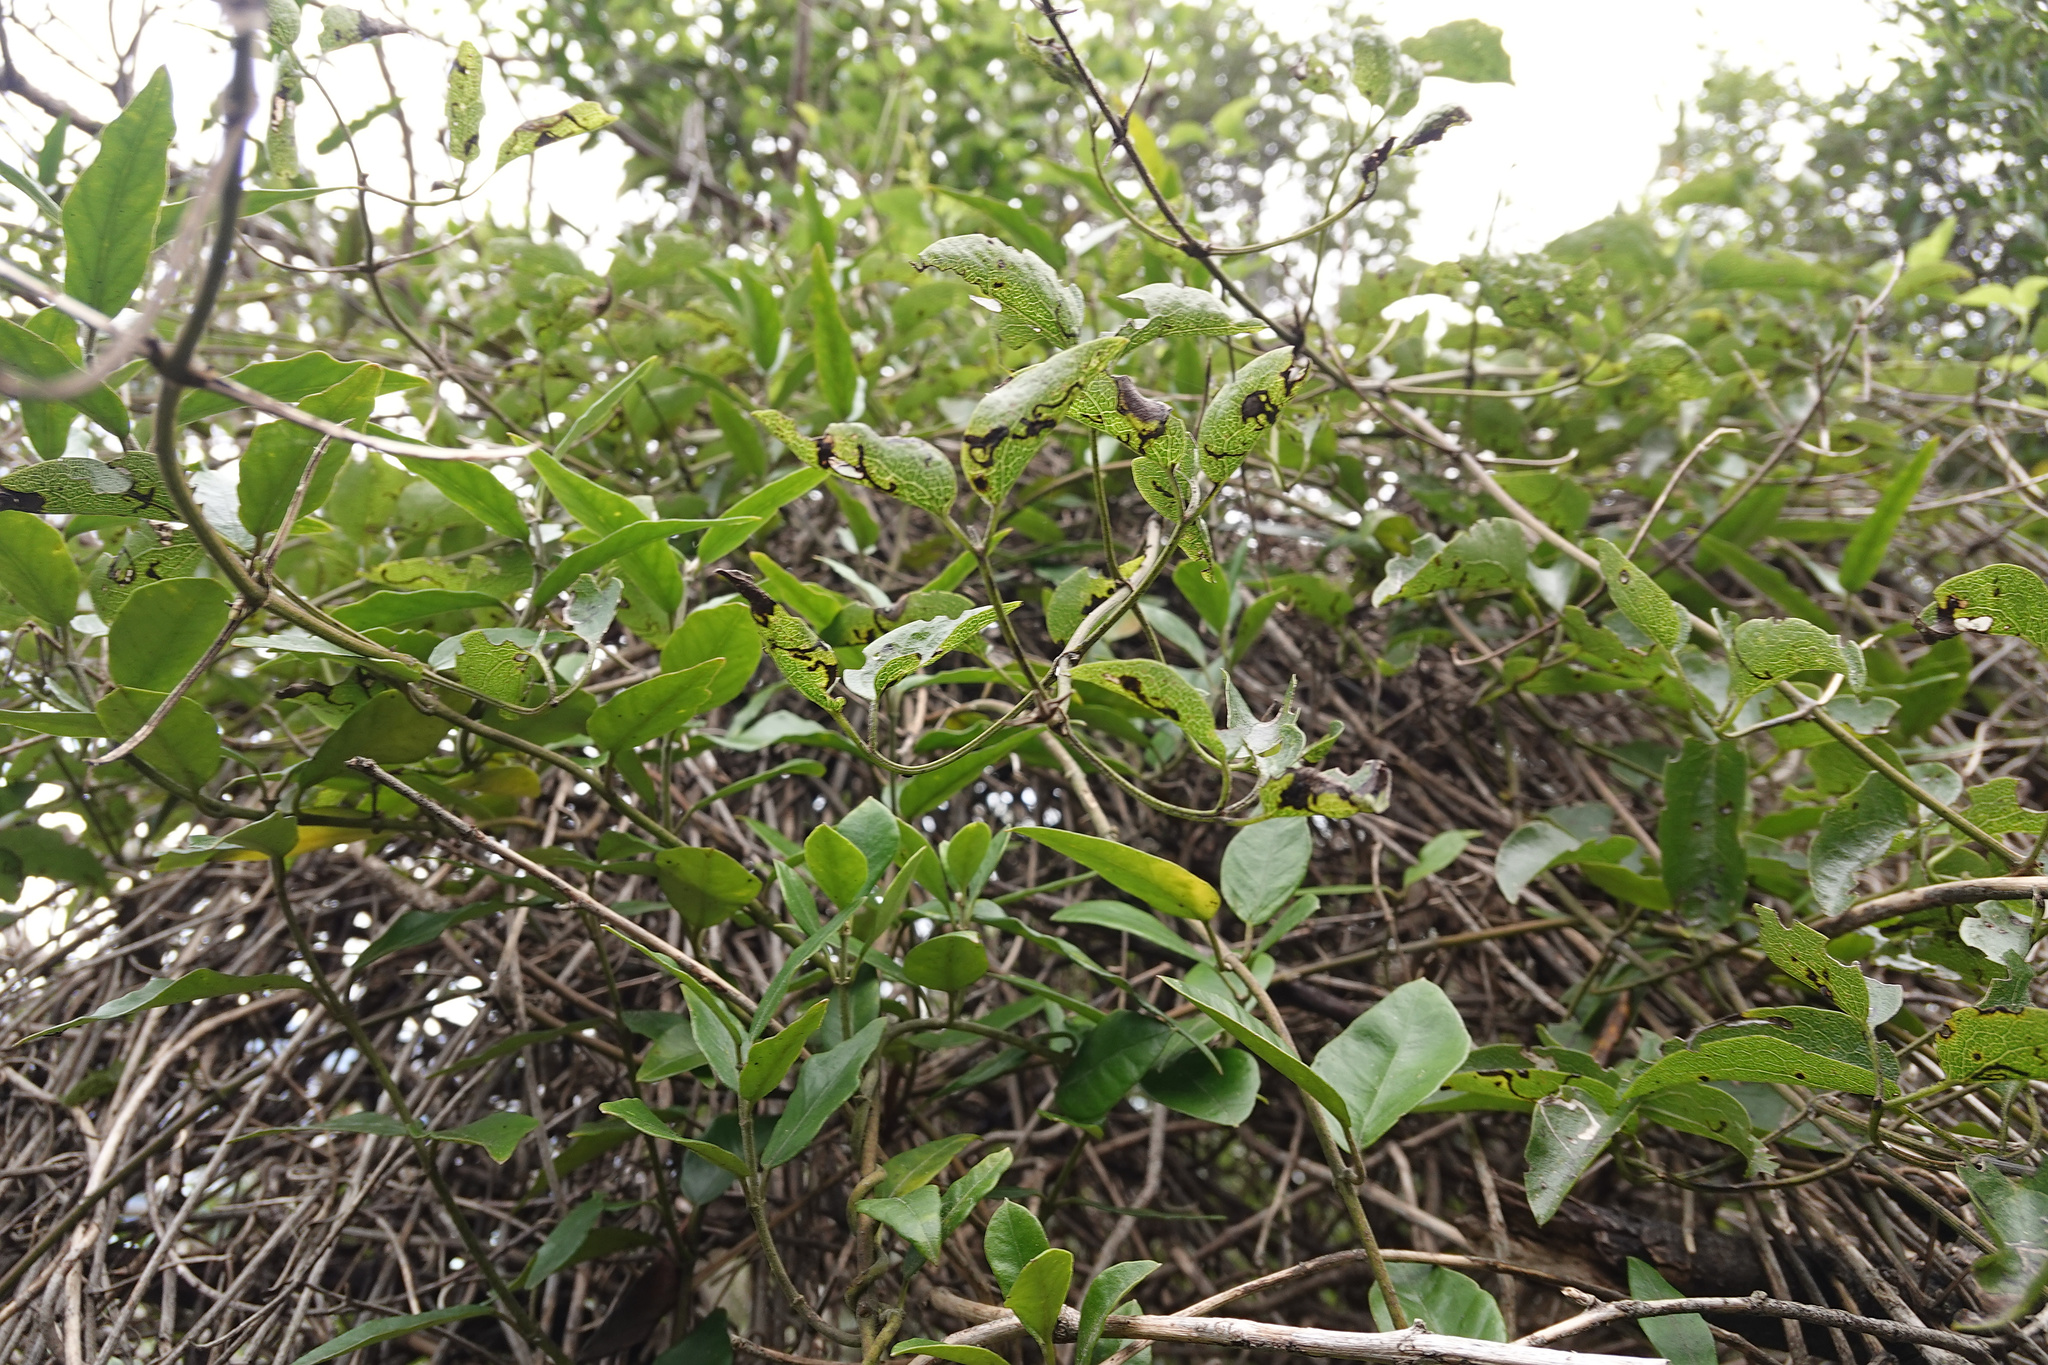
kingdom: Plantae
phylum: Tracheophyta
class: Magnoliopsida
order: Ranunculales
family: Ranunculaceae
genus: Clematis
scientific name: Clematis foetida
